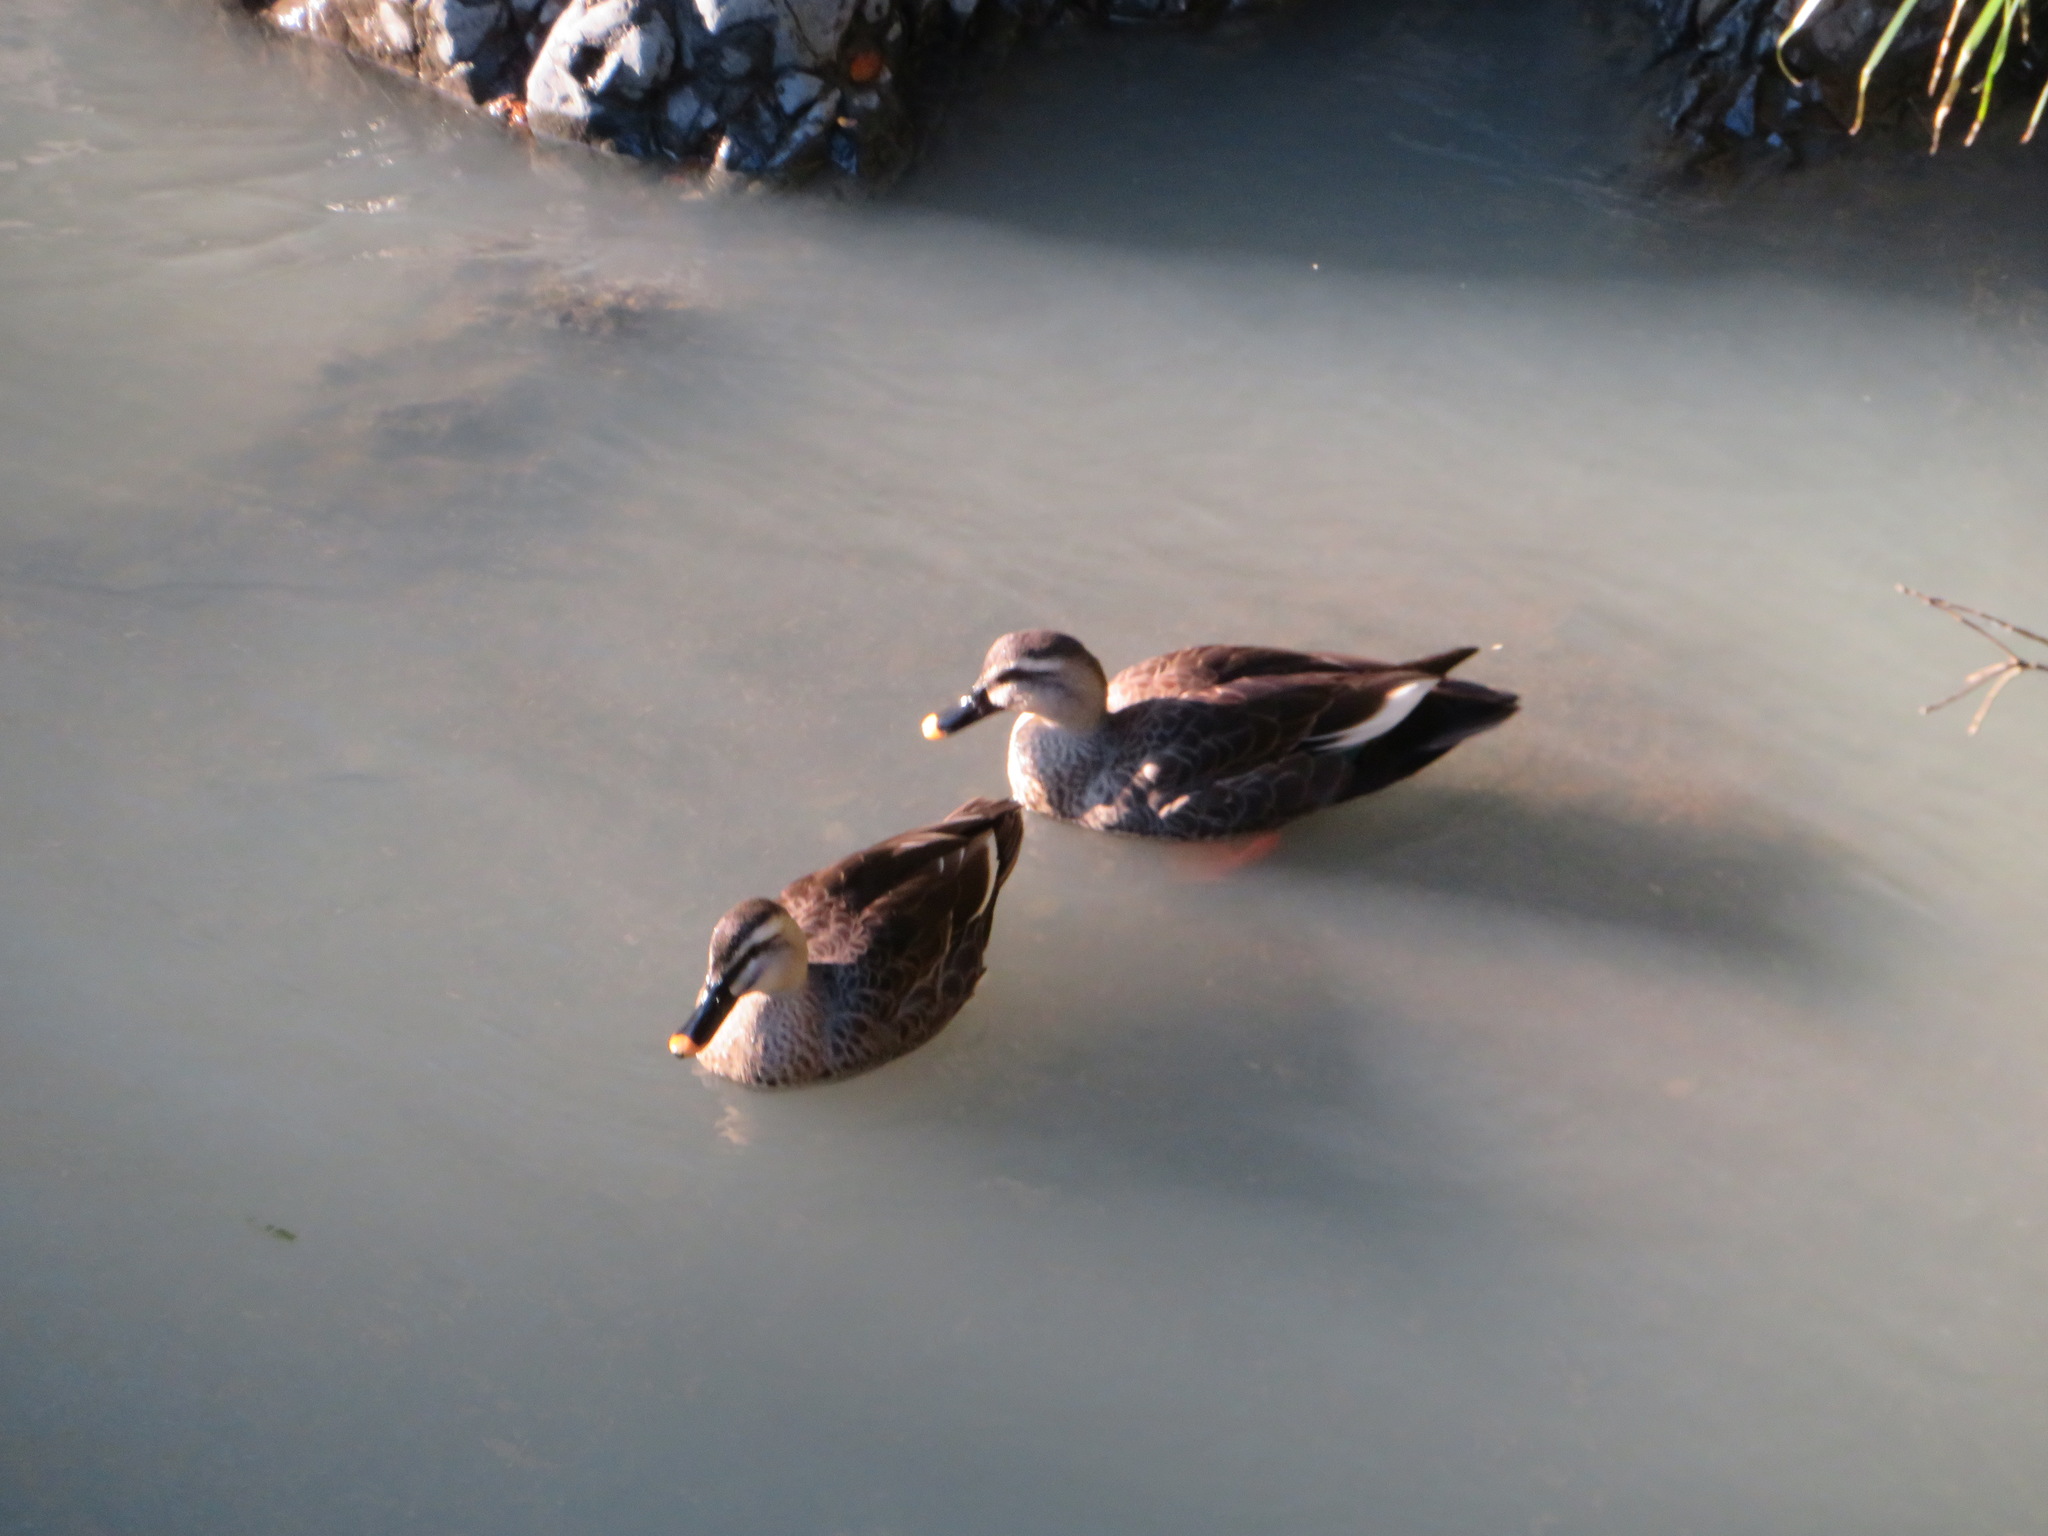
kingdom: Animalia
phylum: Chordata
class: Aves
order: Anseriformes
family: Anatidae
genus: Anas
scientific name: Anas zonorhyncha
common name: Eastern spot-billed duck
